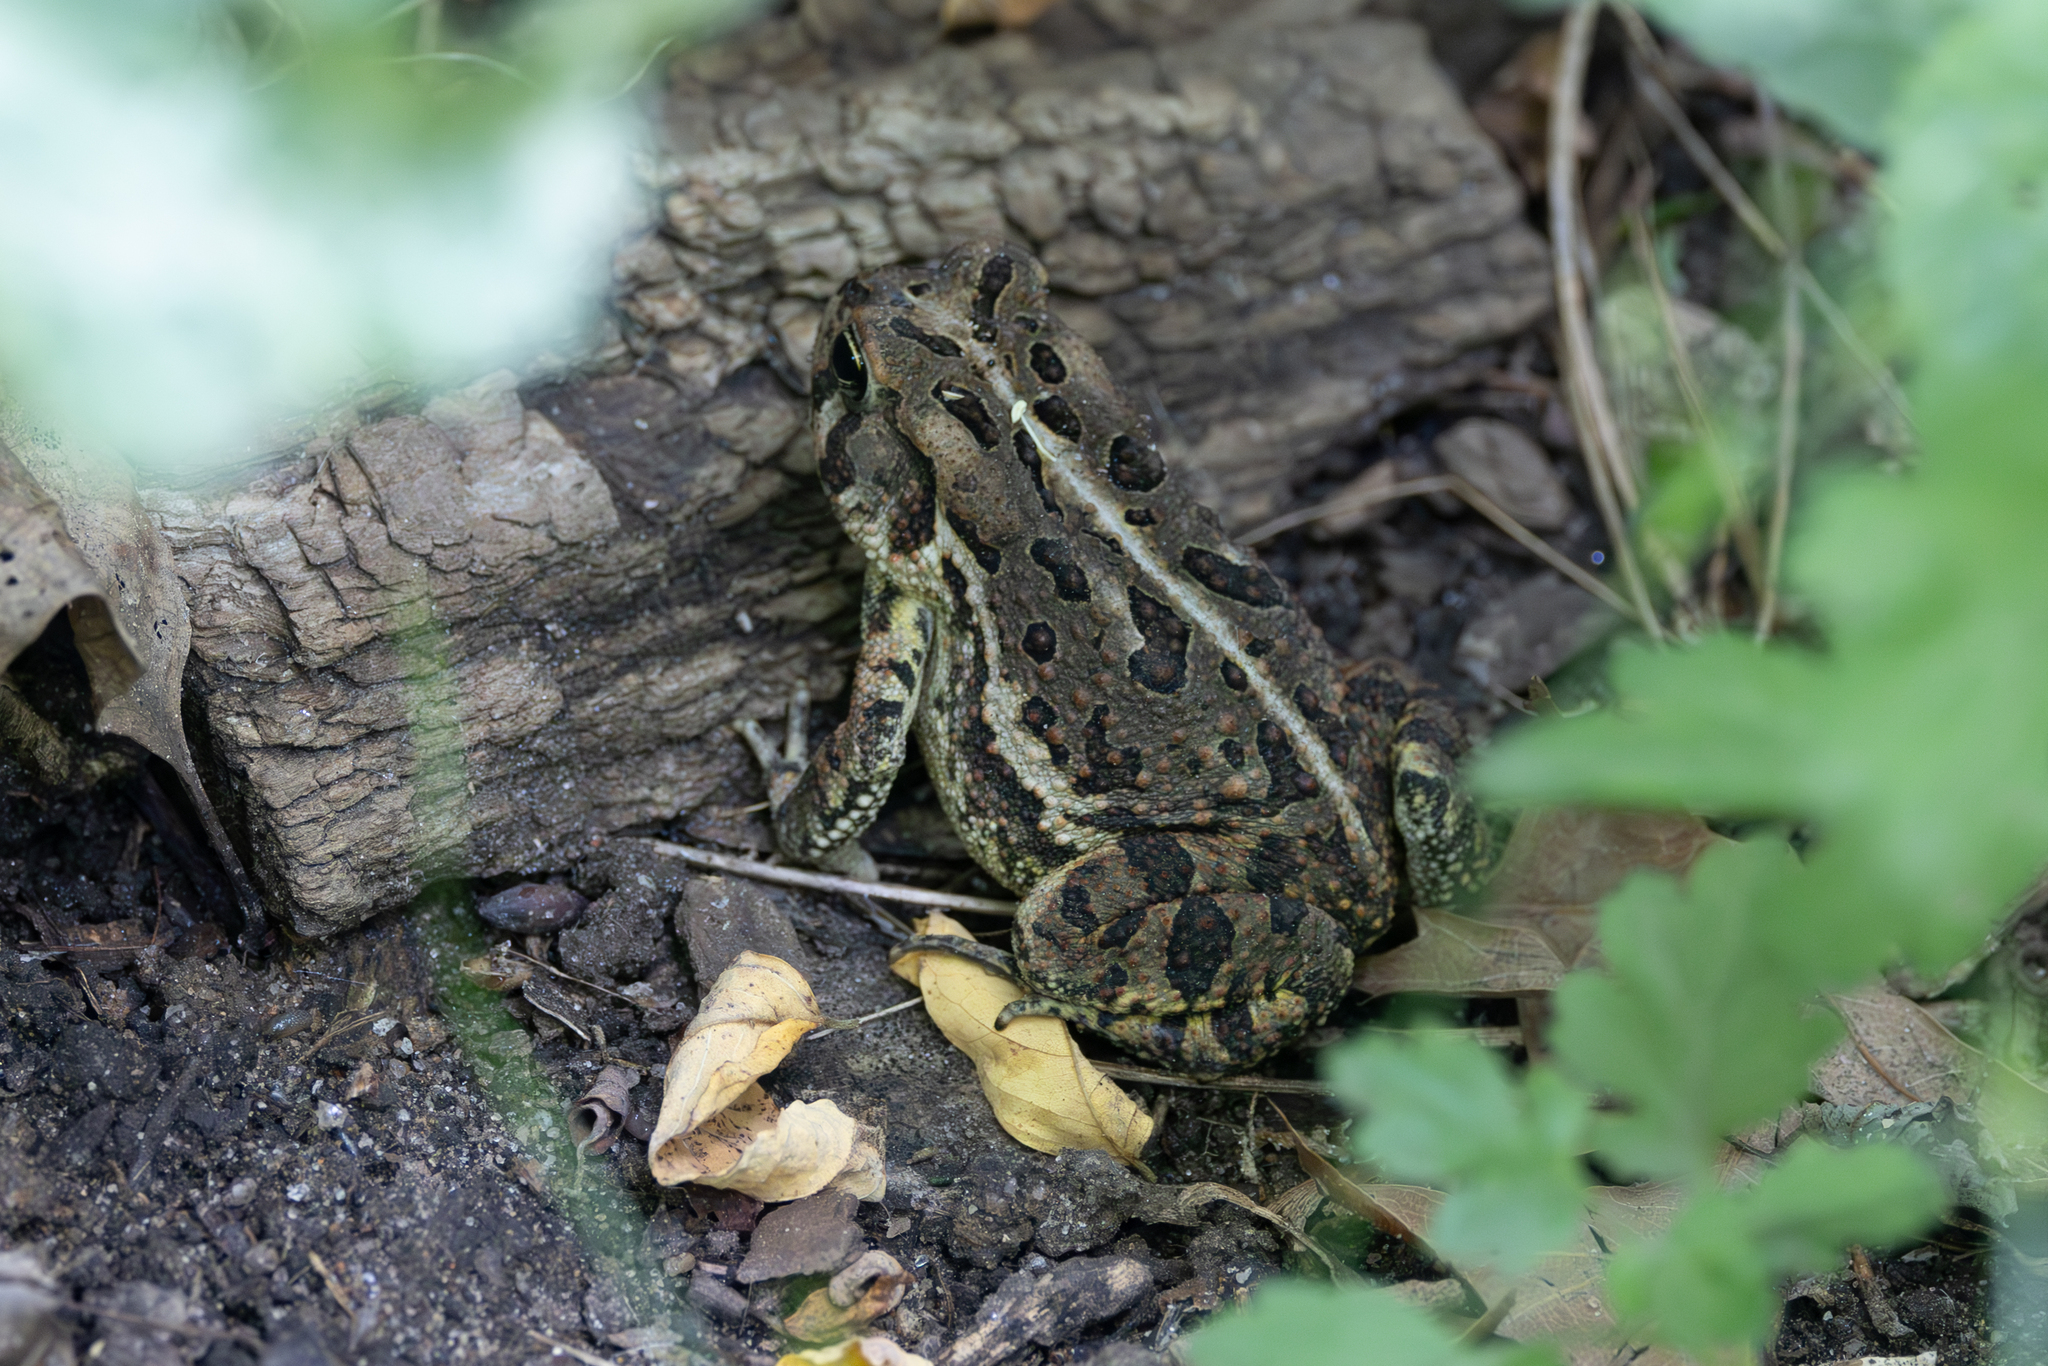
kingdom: Animalia
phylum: Chordata
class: Amphibia
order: Anura
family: Bufonidae
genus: Anaxyrus
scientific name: Anaxyrus fowleri
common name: Fowler's toad
